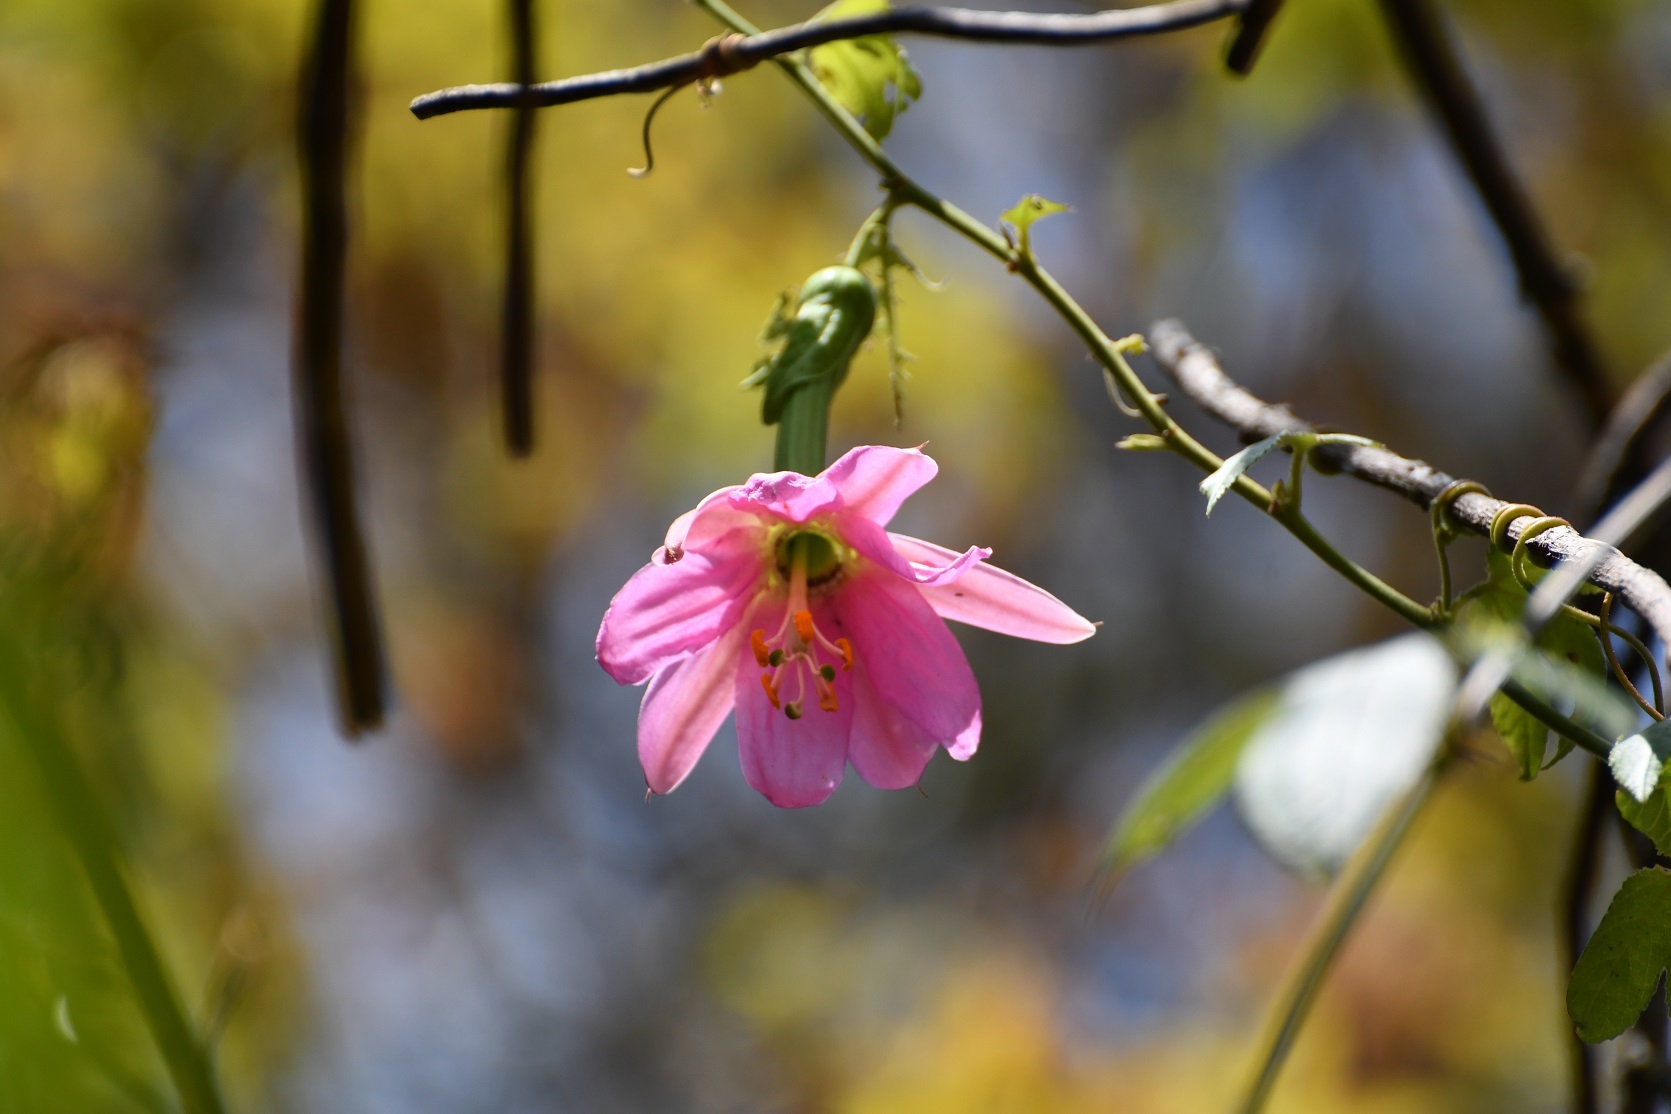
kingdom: Plantae
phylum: Tracheophyta
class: Magnoliopsida
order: Malpighiales
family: Passifloraceae
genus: Passiflora
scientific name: Passiflora tarminiana
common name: Banana poka
